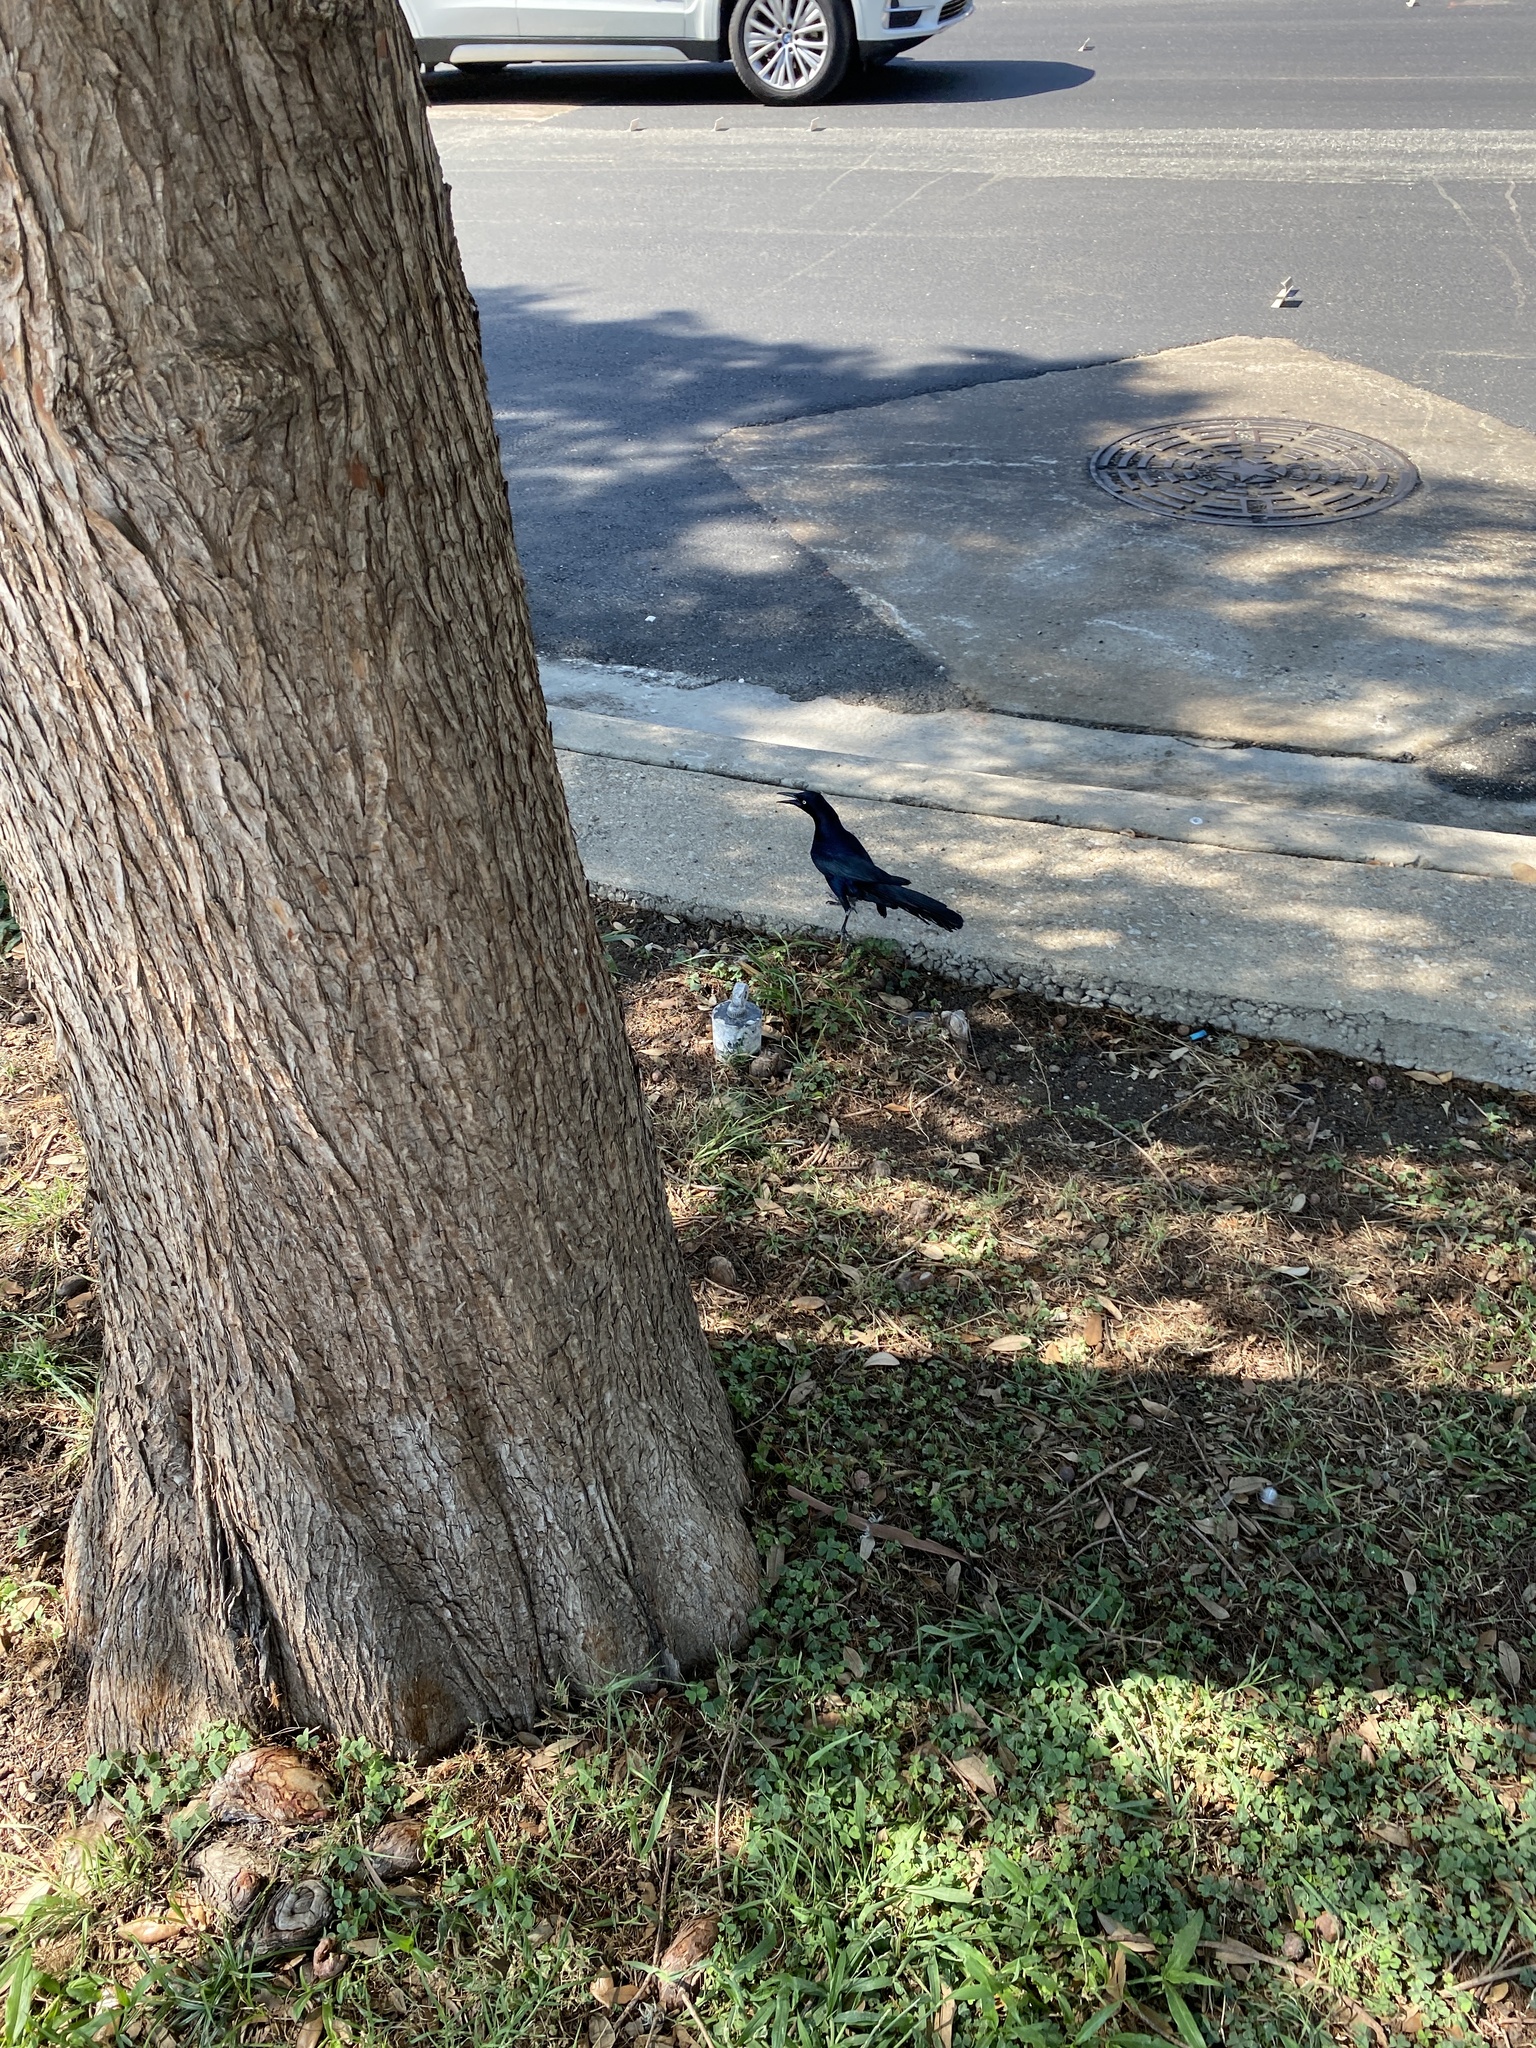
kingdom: Animalia
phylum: Chordata
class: Aves
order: Passeriformes
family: Icteridae
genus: Quiscalus
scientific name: Quiscalus mexicanus
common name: Great-tailed grackle
